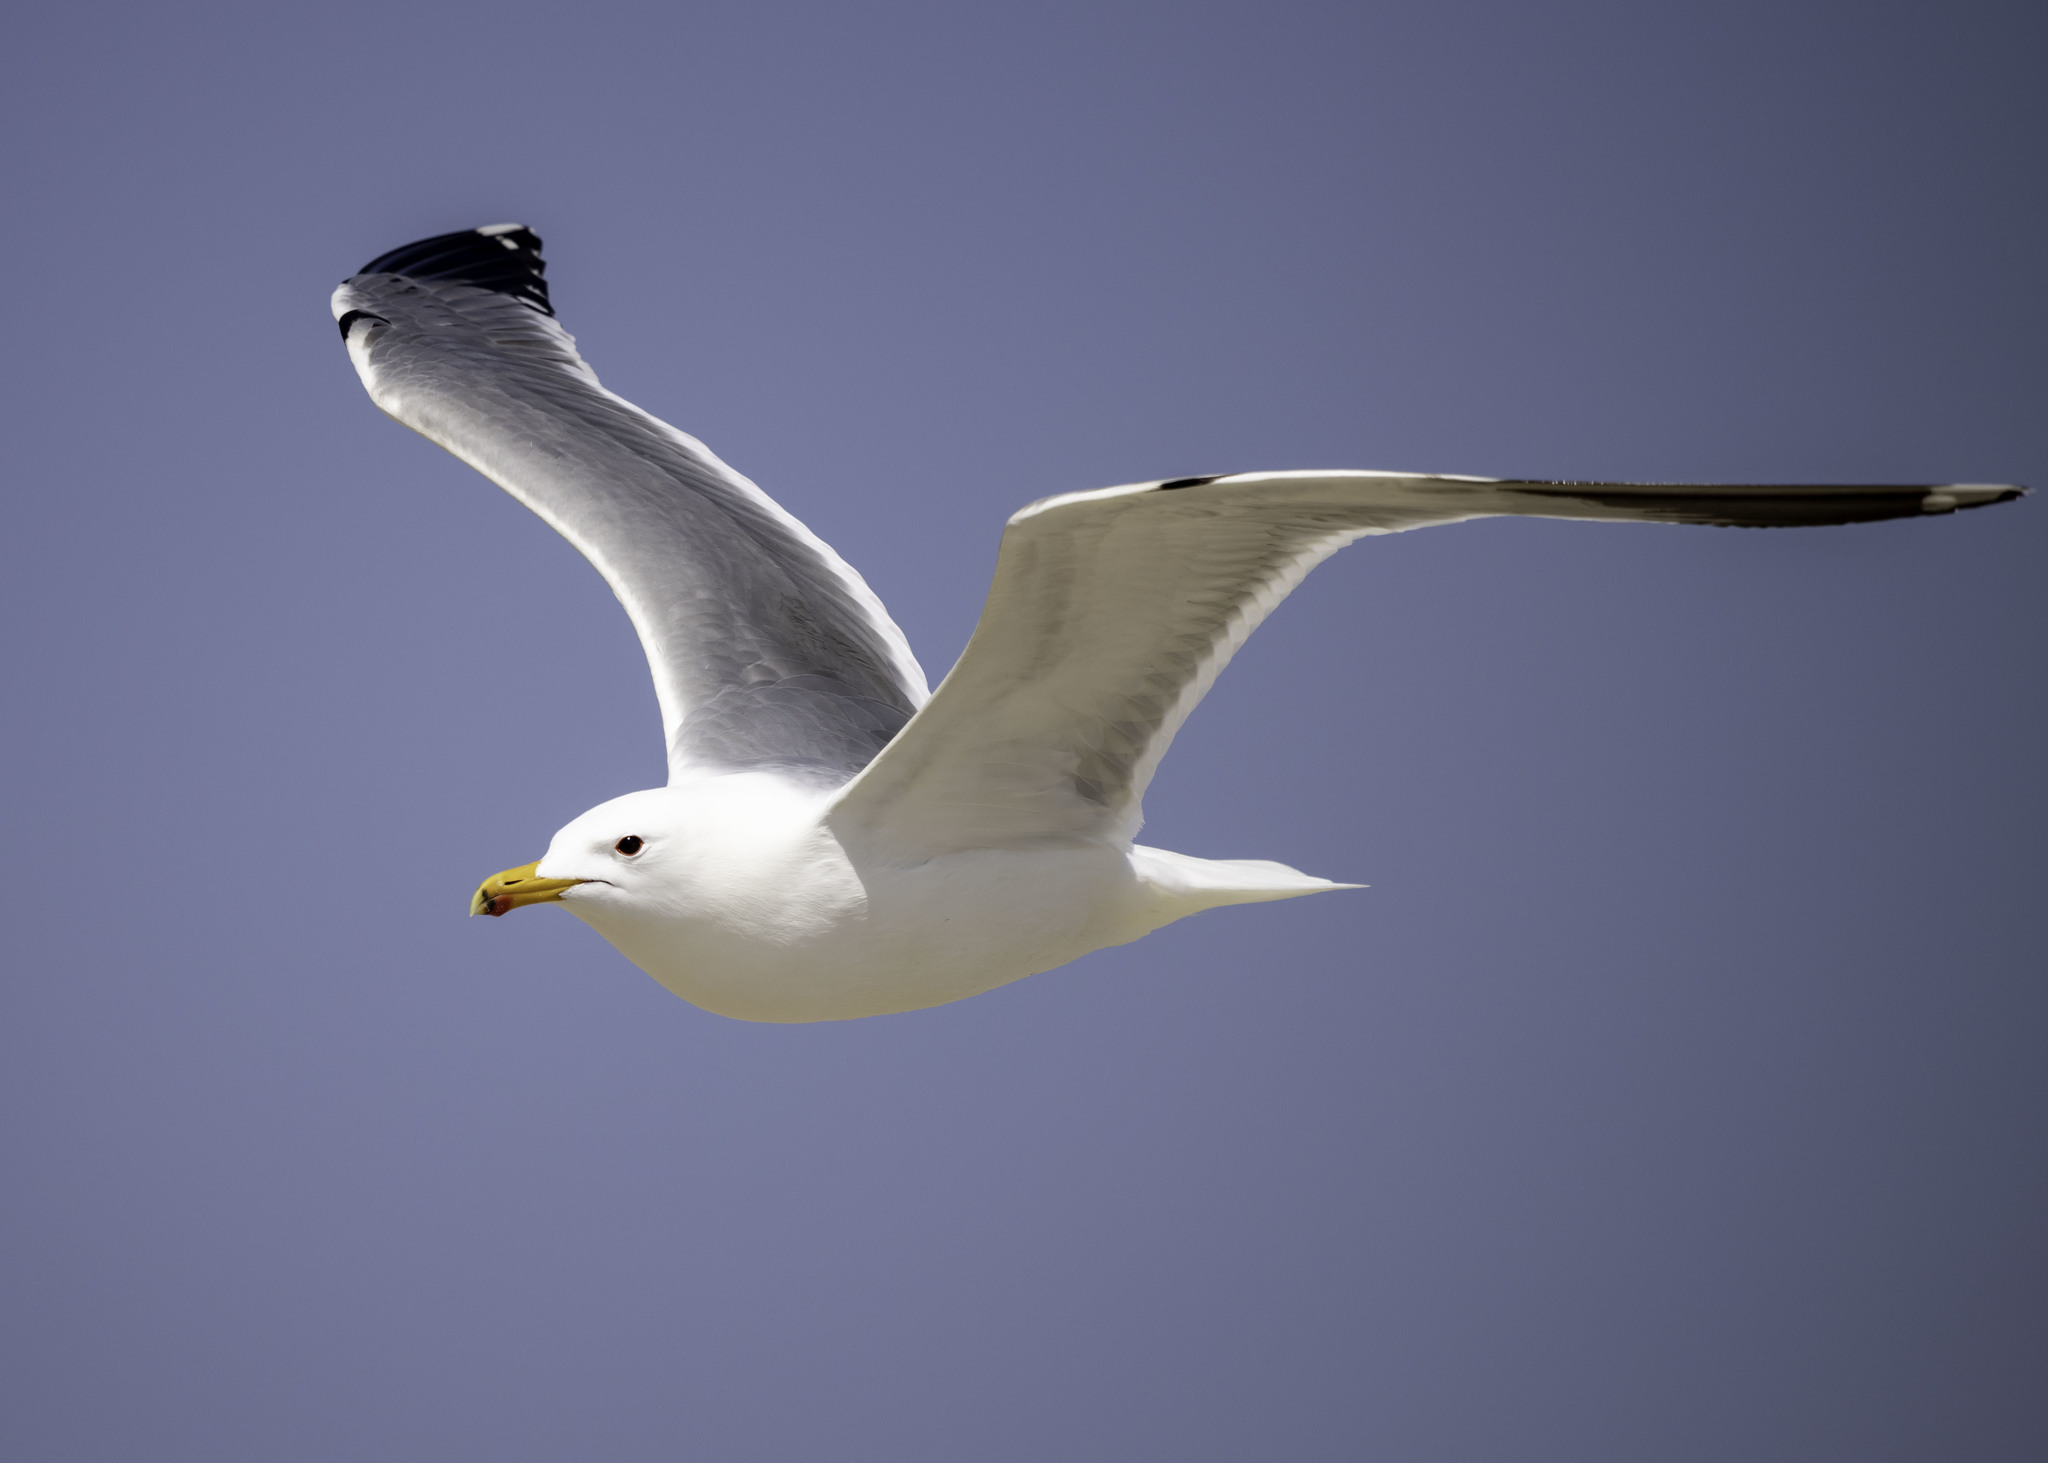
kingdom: Animalia
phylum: Chordata
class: Aves
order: Charadriiformes
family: Laridae
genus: Larus
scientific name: Larus californicus
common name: California gull
